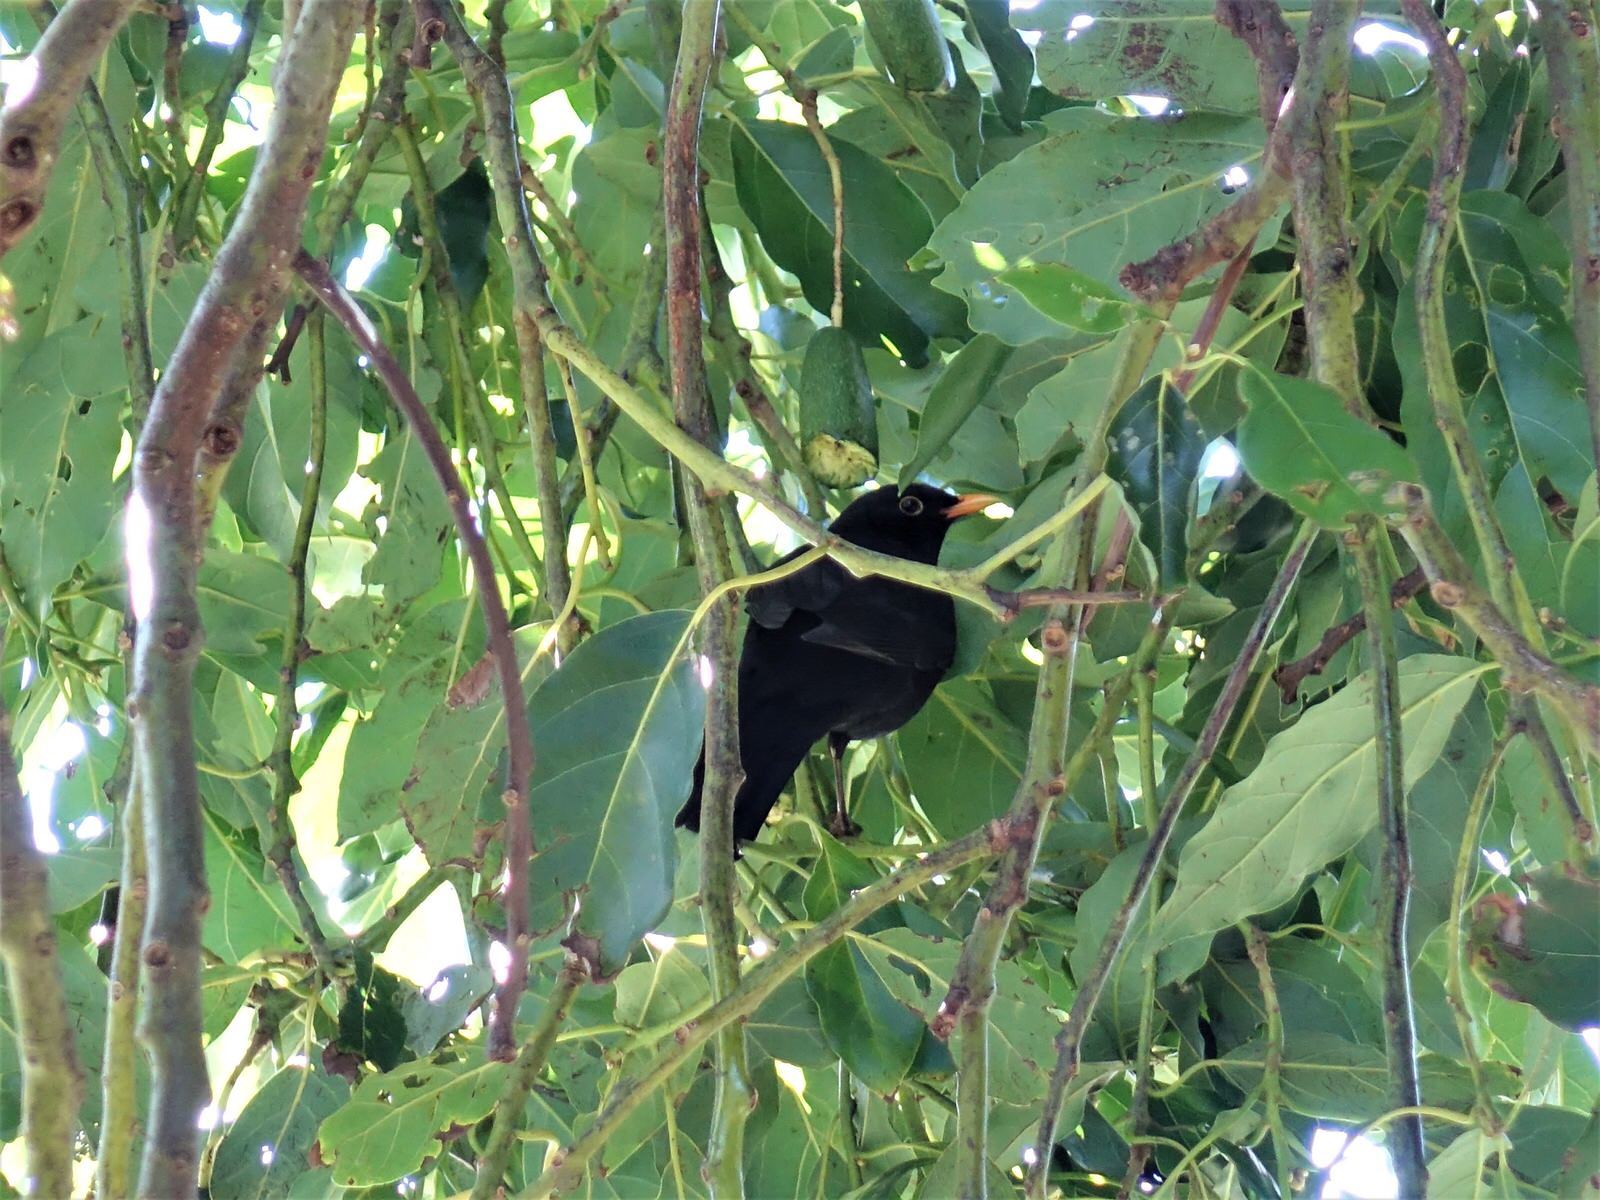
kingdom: Animalia
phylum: Chordata
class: Aves
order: Passeriformes
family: Turdidae
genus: Turdus
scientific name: Turdus merula
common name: Common blackbird
